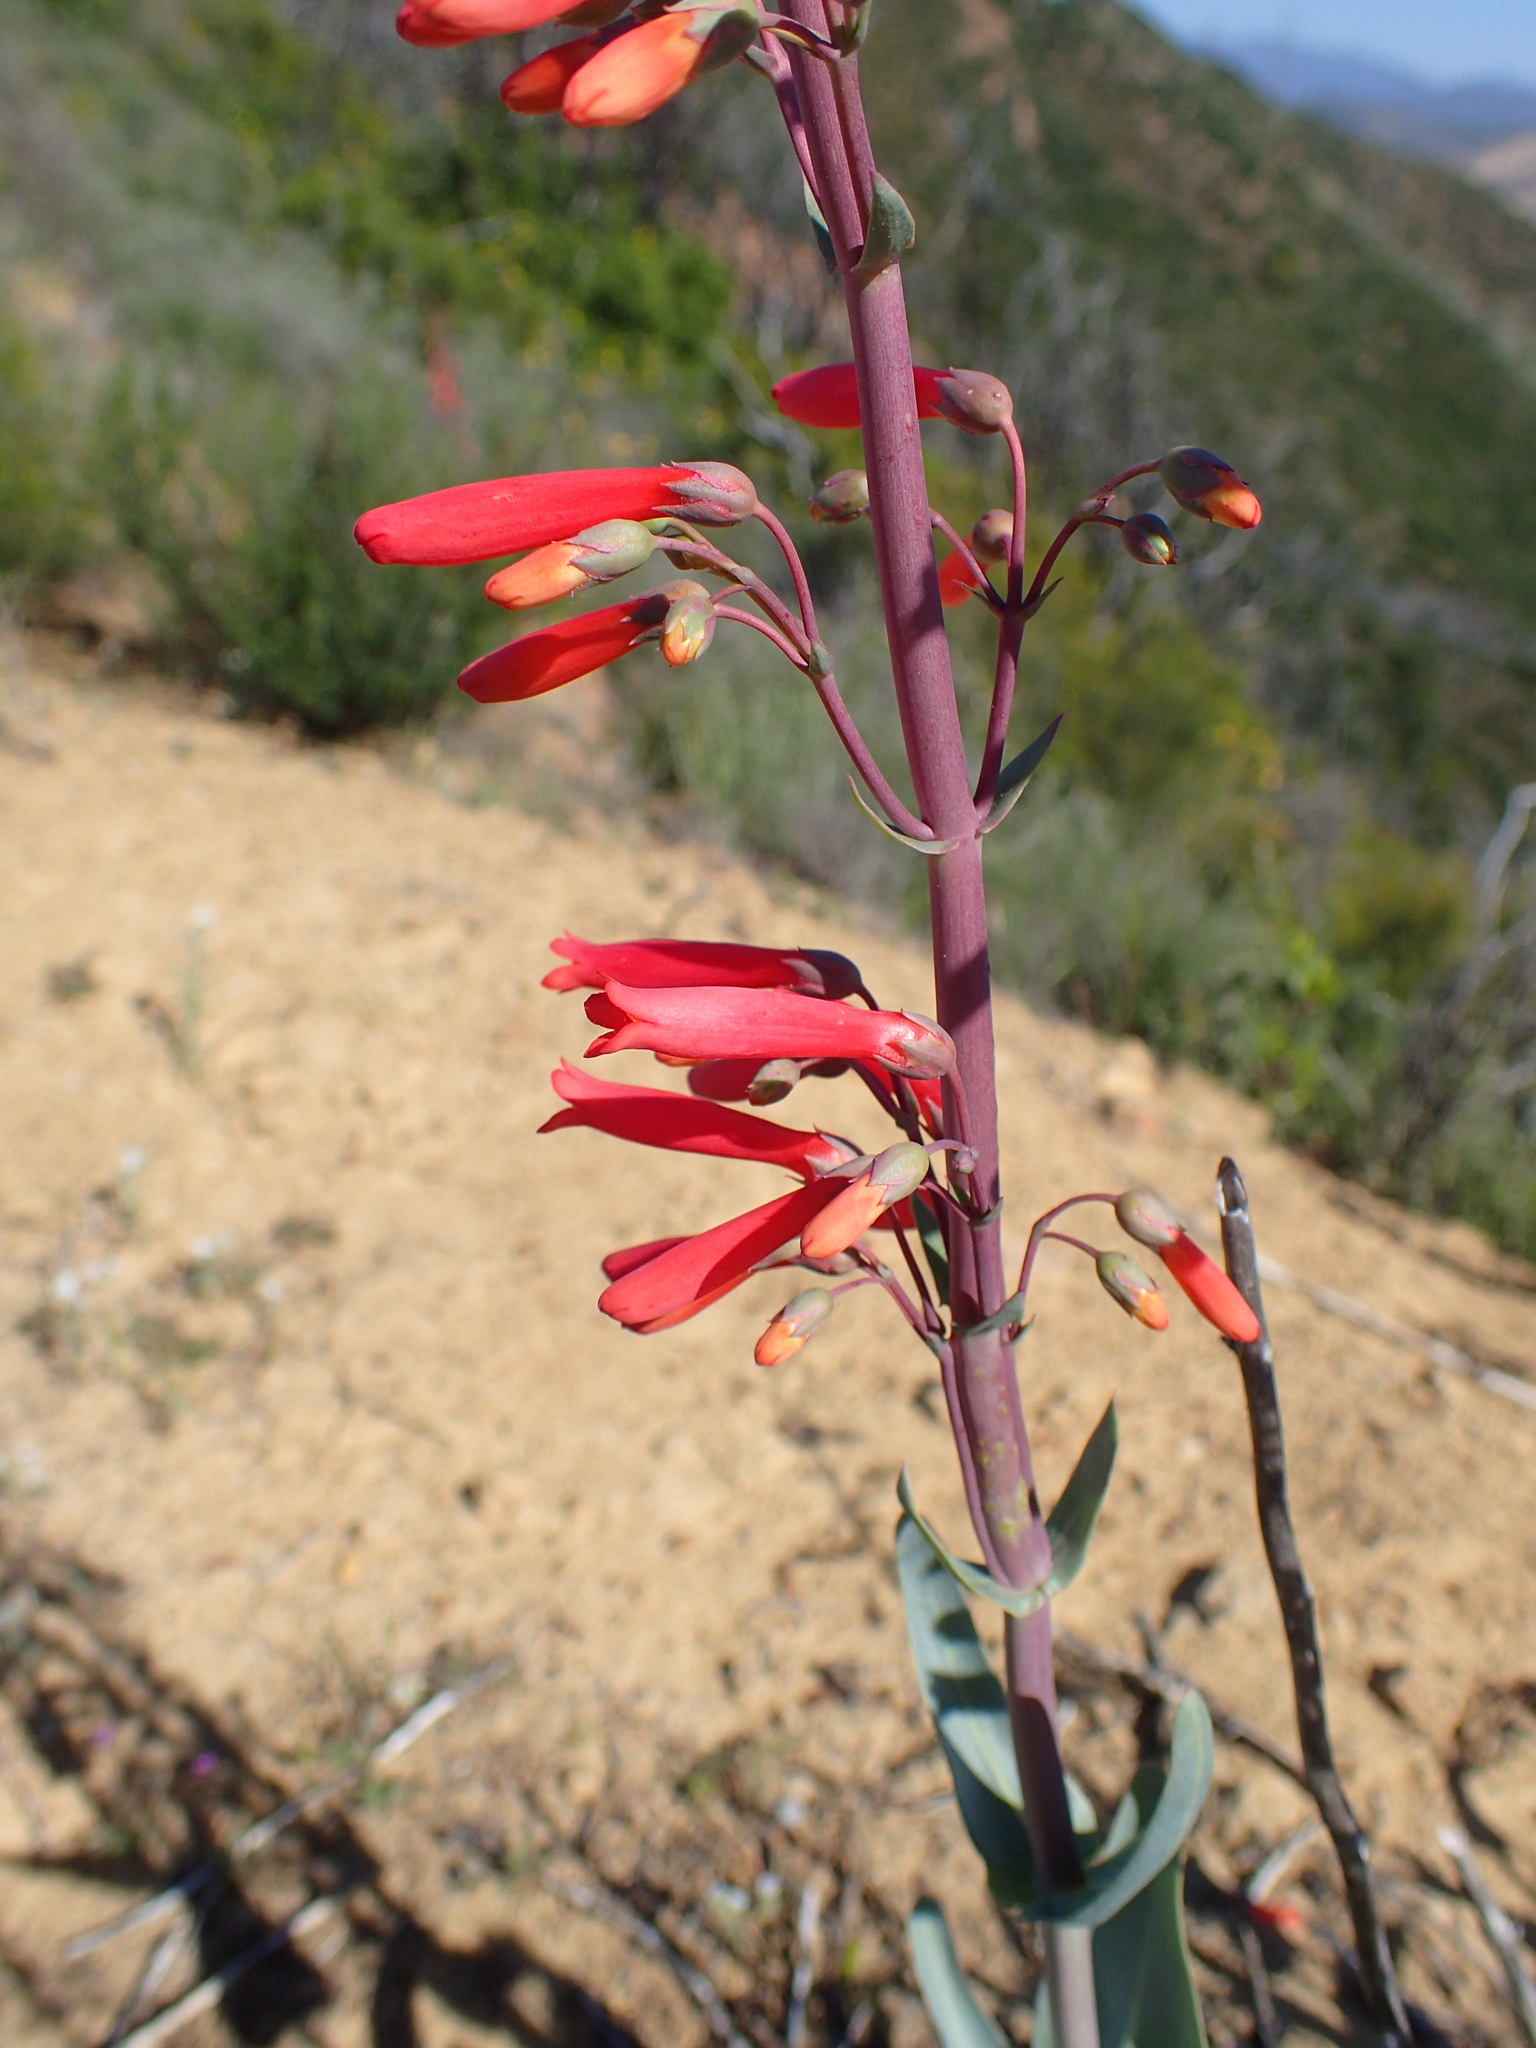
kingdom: Plantae
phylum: Tracheophyta
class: Magnoliopsida
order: Lamiales
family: Plantaginaceae
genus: Penstemon
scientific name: Penstemon centranthifolius
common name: Scarlet bugler
